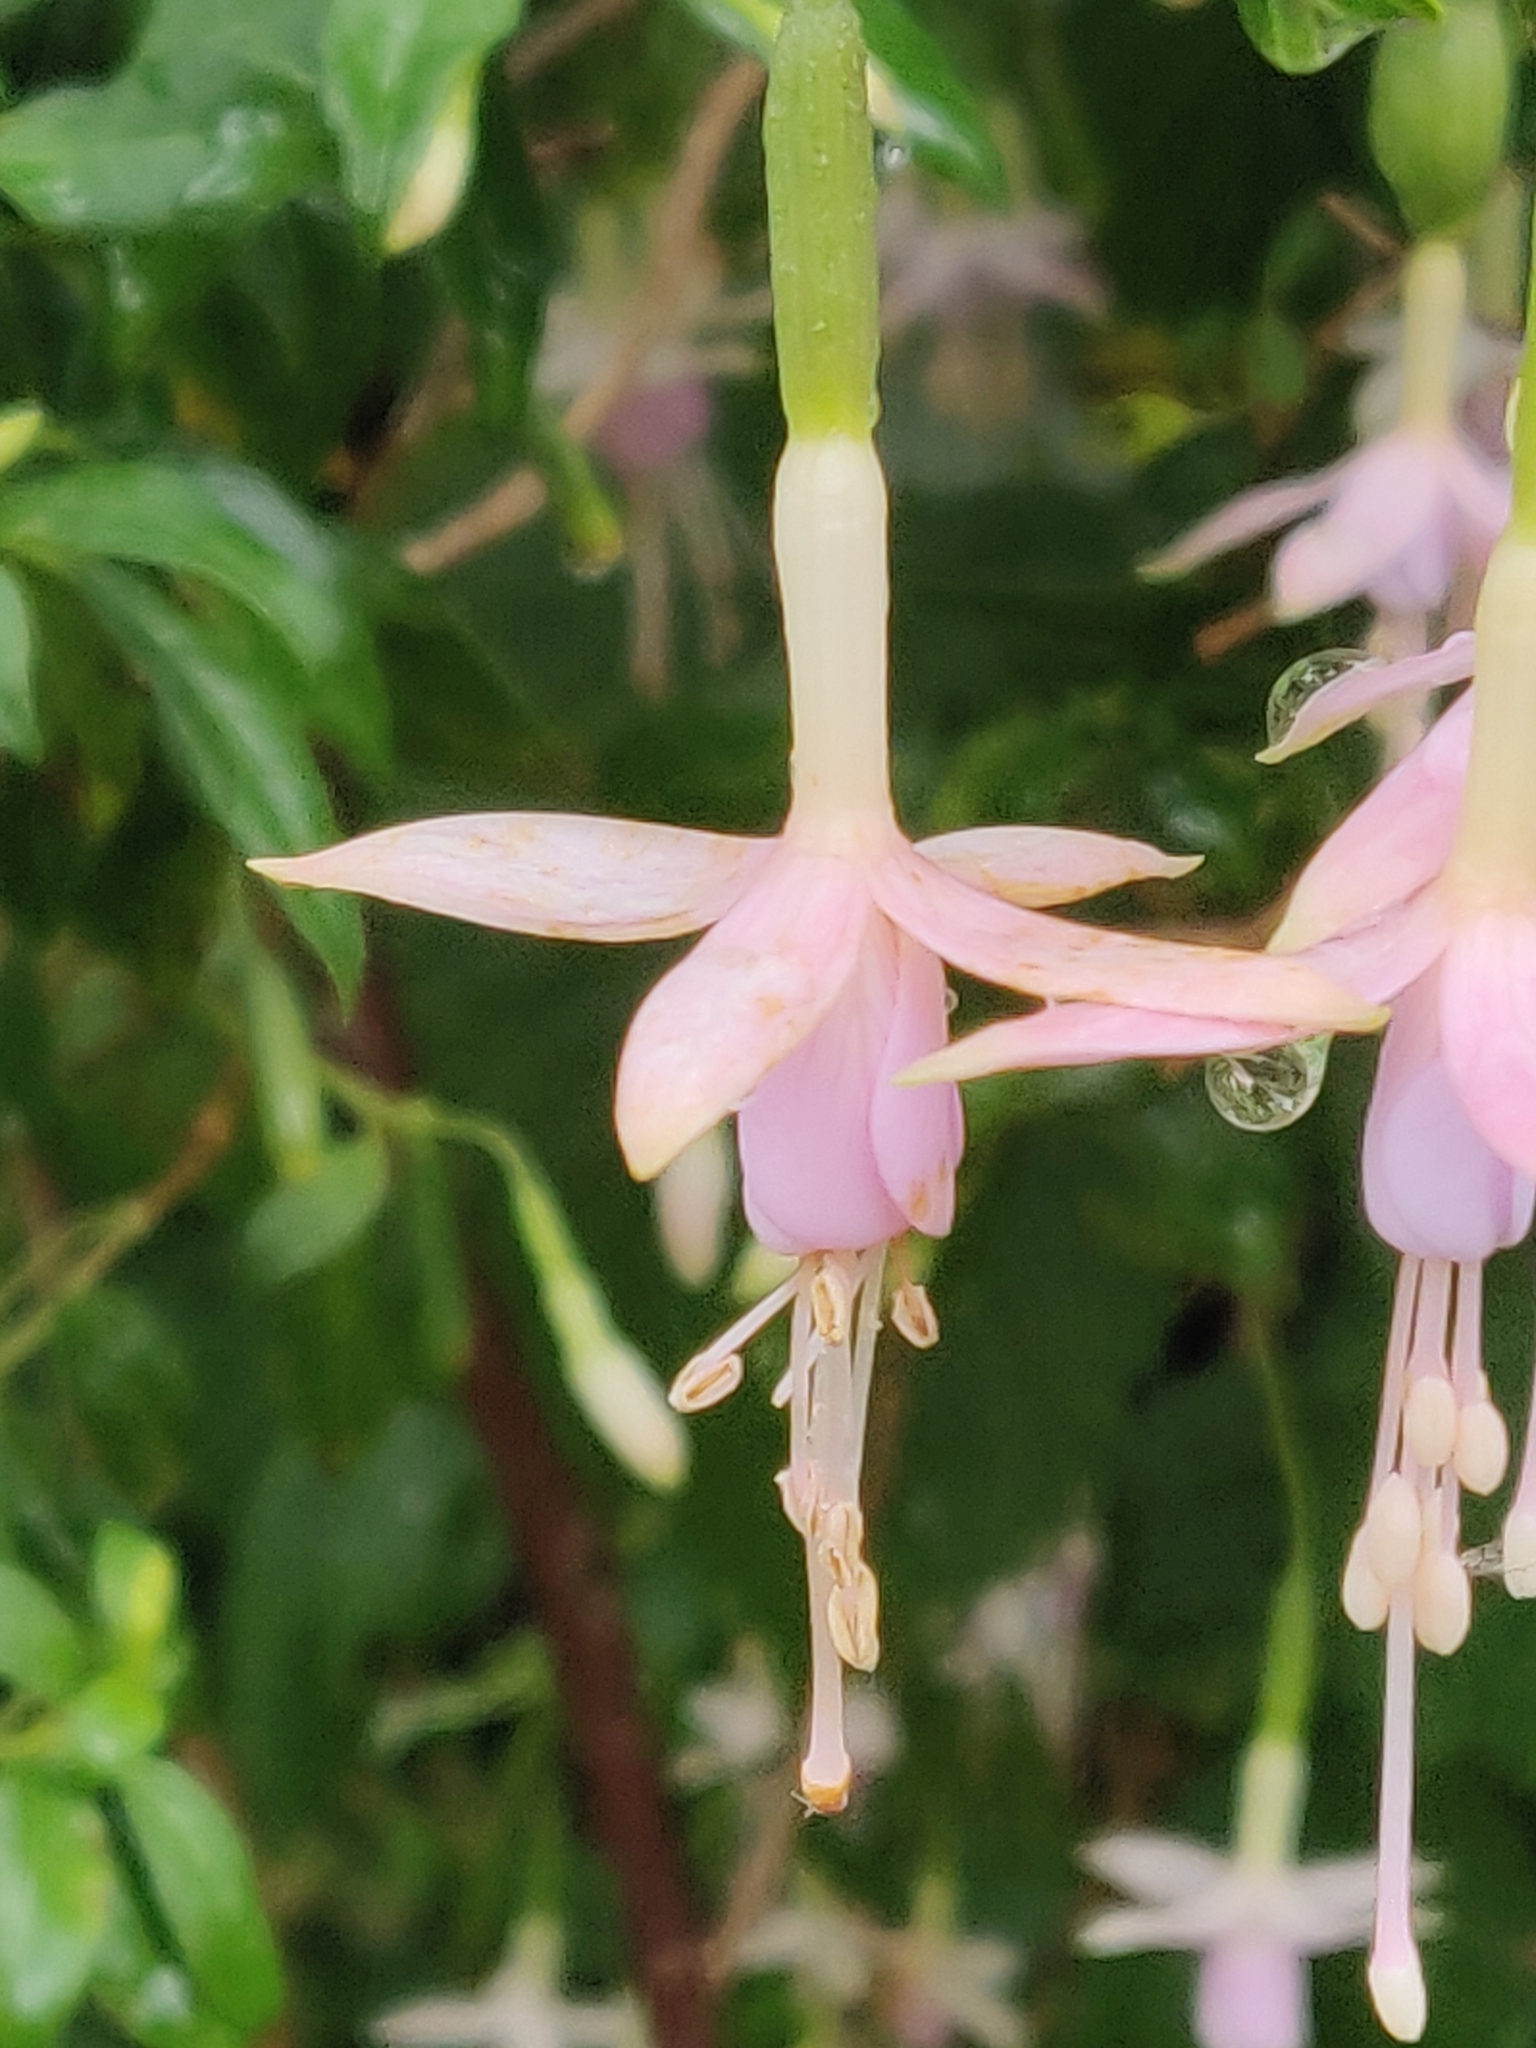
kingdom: Plantae
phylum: Tracheophyta
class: Magnoliopsida
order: Myrtales
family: Onagraceae
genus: Fuchsia
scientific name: Fuchsia magellanica
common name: Hardy fuchsia
